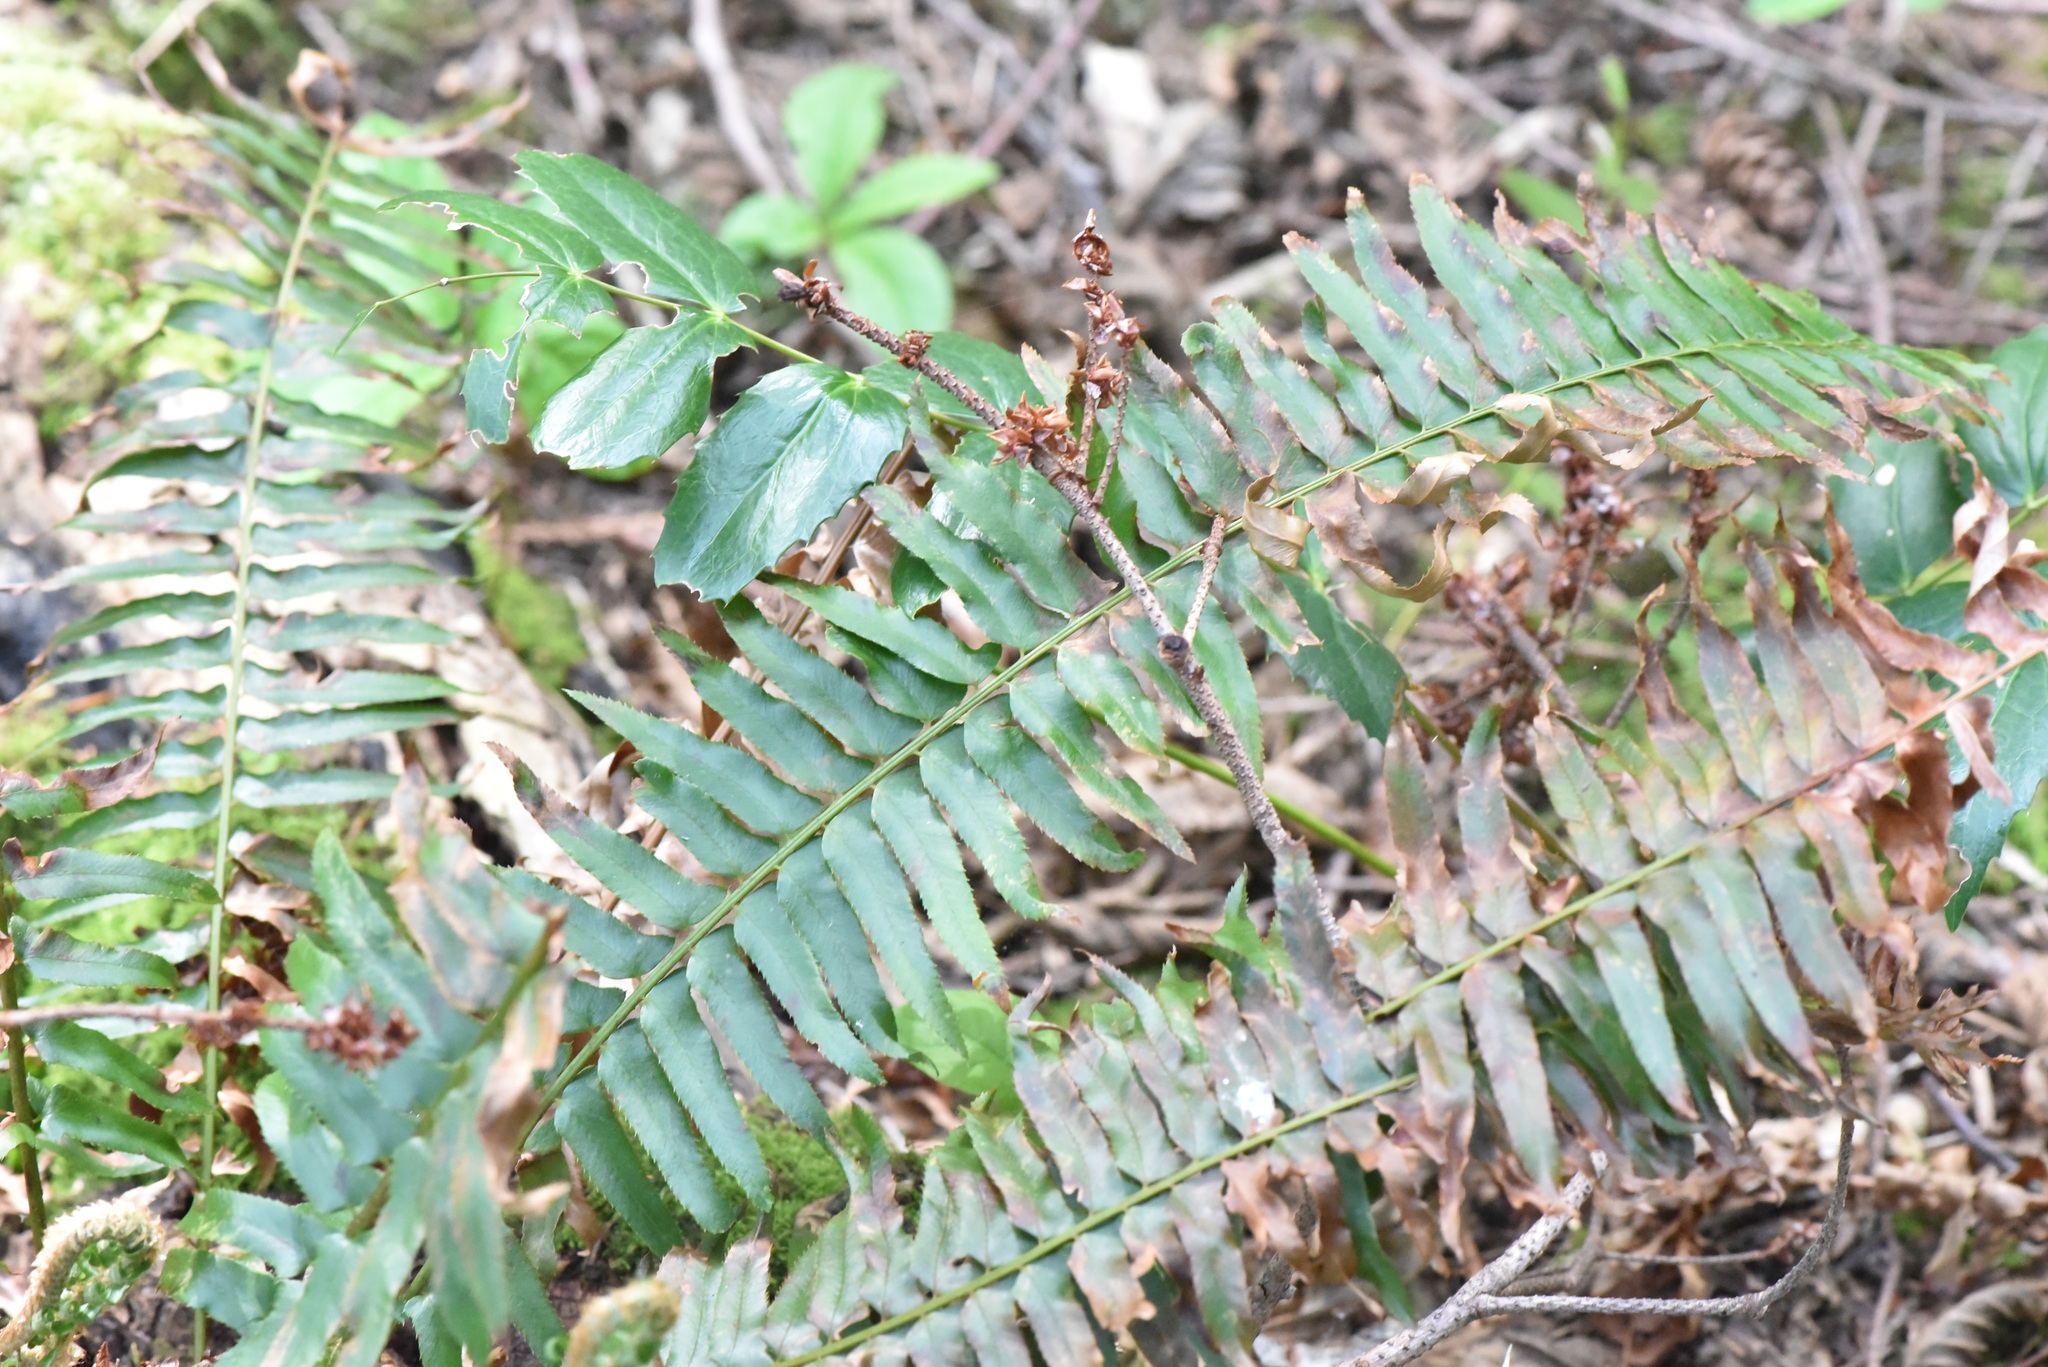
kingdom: Plantae
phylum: Tracheophyta
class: Polypodiopsida
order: Polypodiales
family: Dryopteridaceae
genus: Polystichum
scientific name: Polystichum munitum
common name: Western sword-fern
